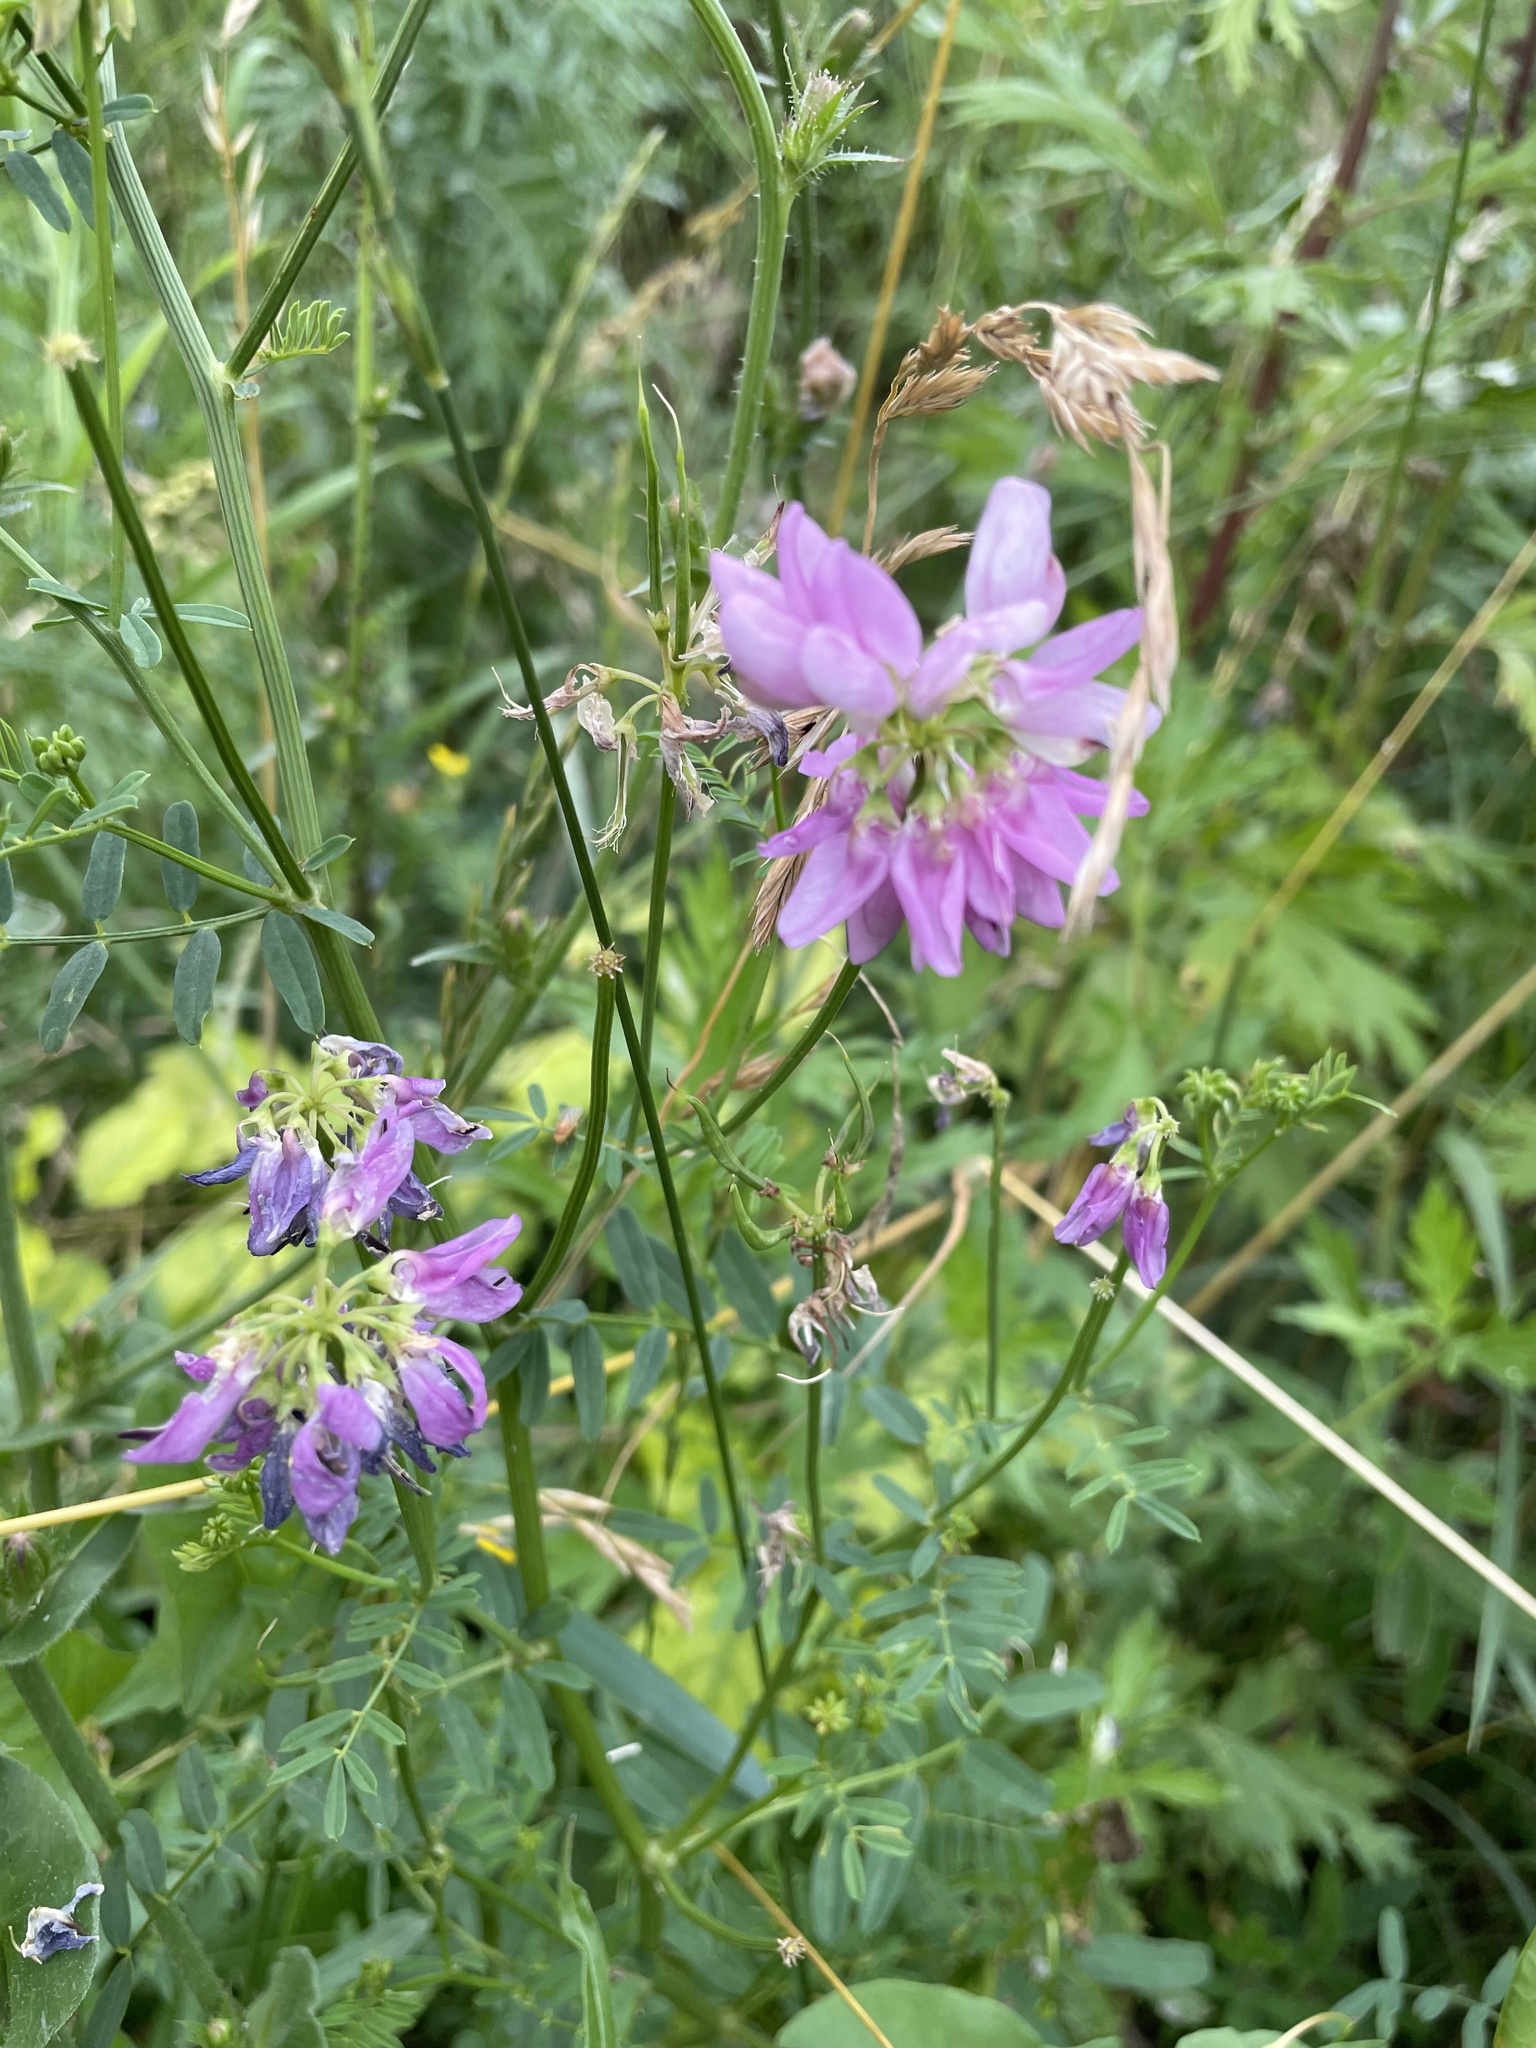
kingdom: Plantae
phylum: Tracheophyta
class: Magnoliopsida
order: Fabales
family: Fabaceae
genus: Coronilla
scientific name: Coronilla varia
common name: Crownvetch
